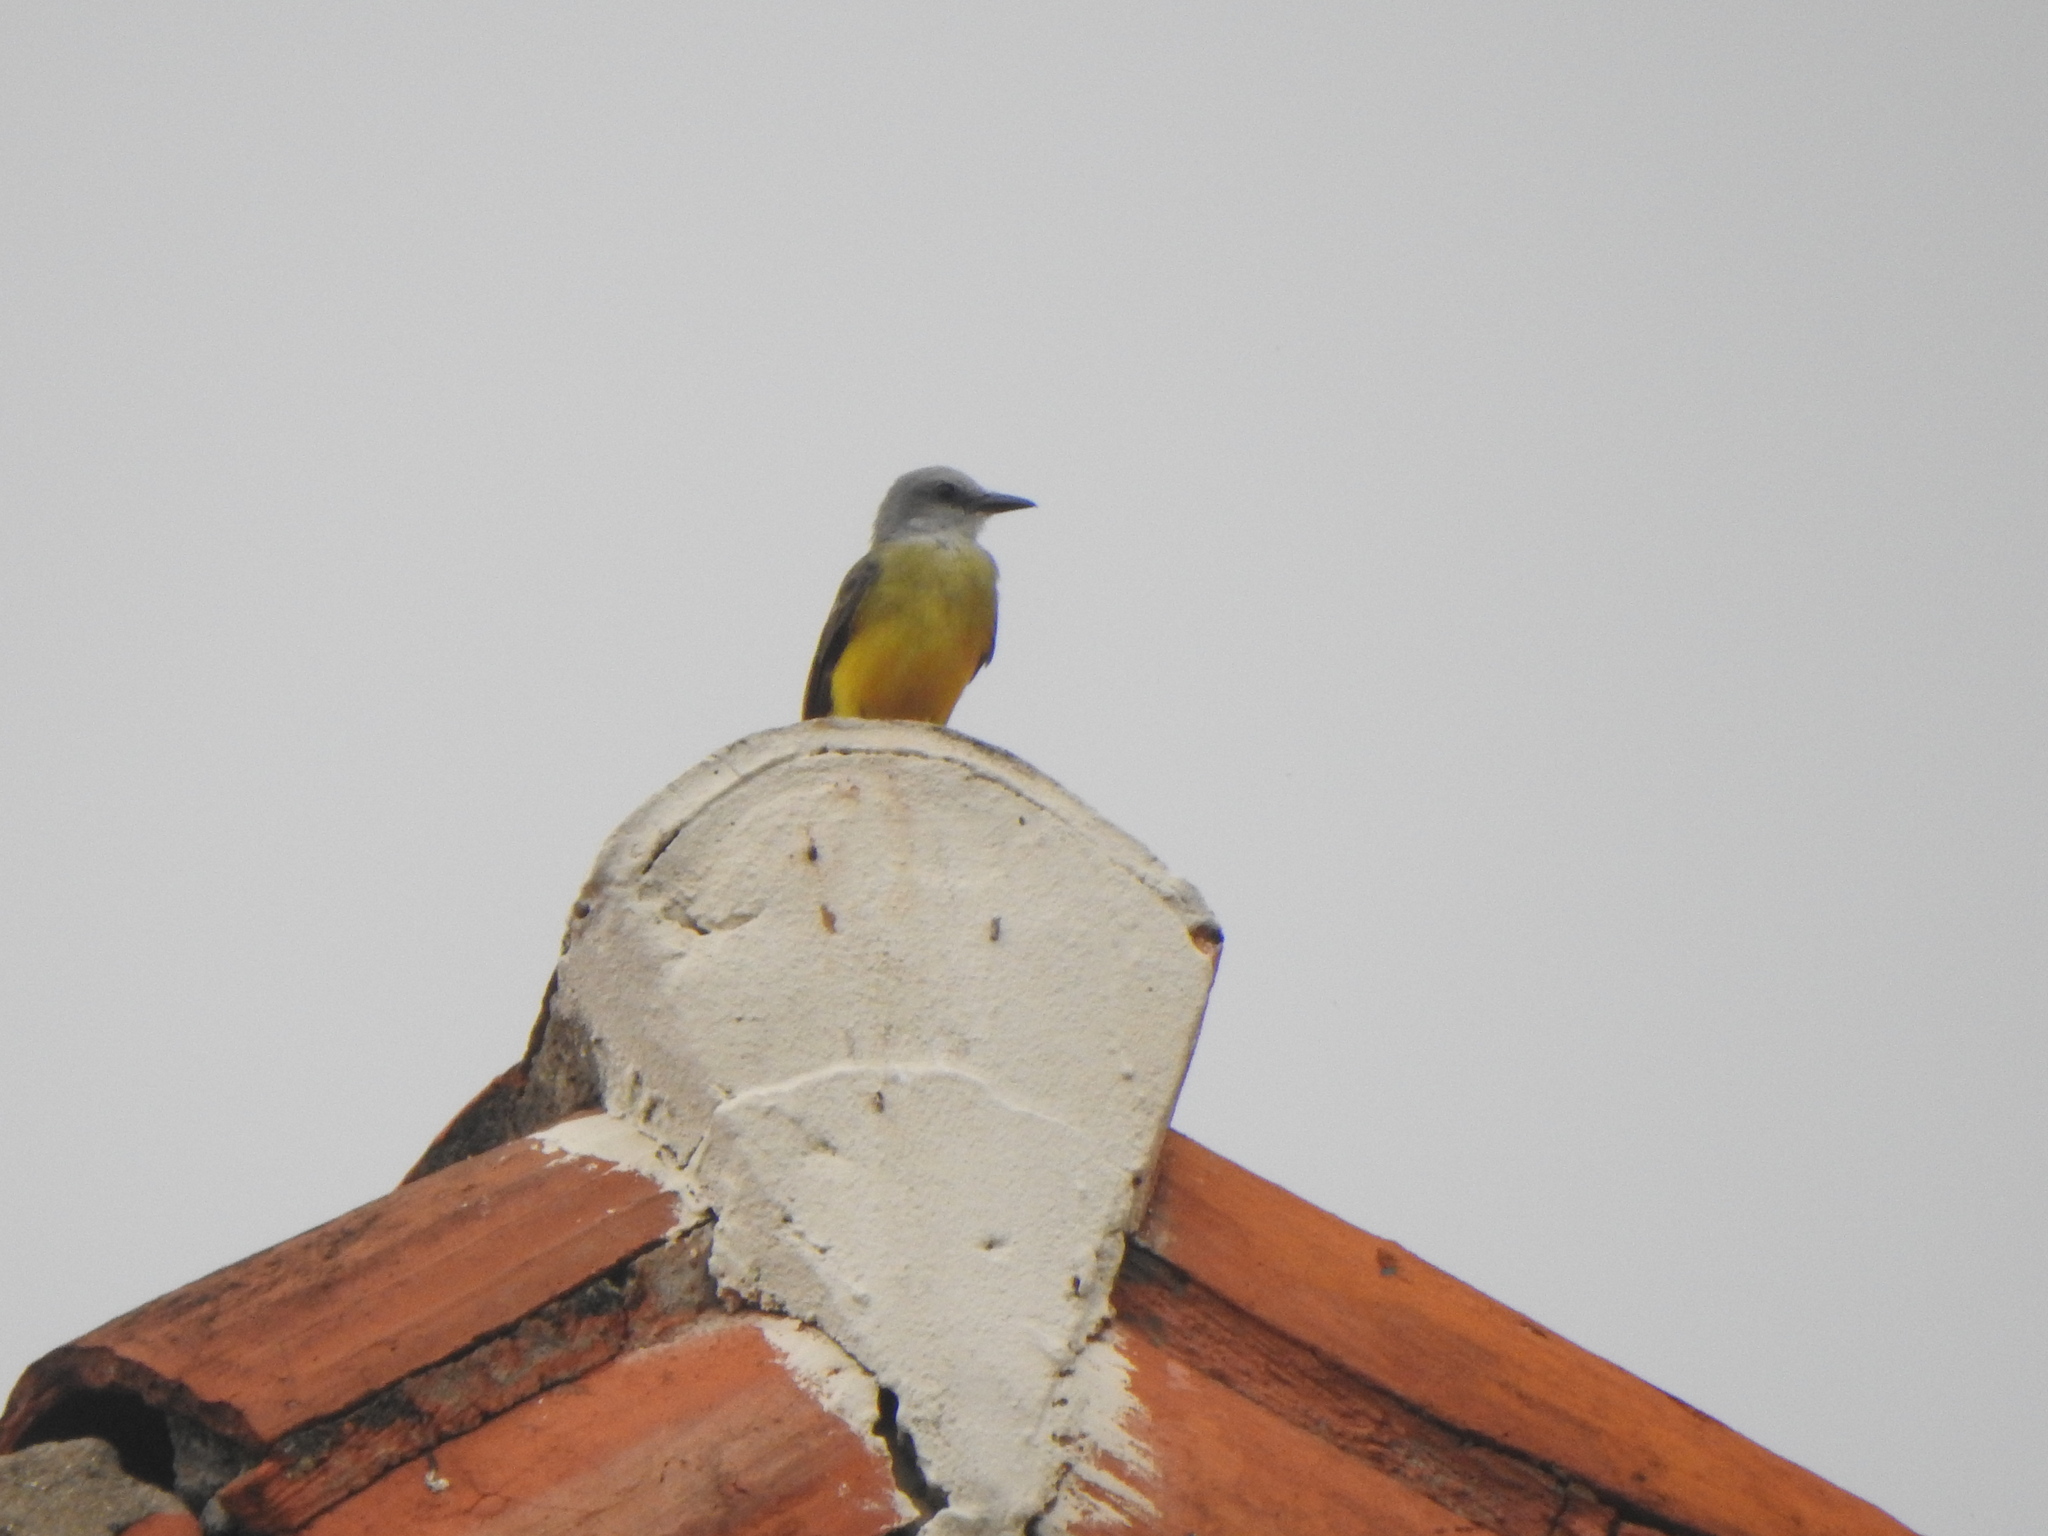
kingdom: Animalia
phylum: Chordata
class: Aves
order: Passeriformes
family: Tyrannidae
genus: Tyrannus
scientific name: Tyrannus melancholicus
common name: Tropical kingbird
